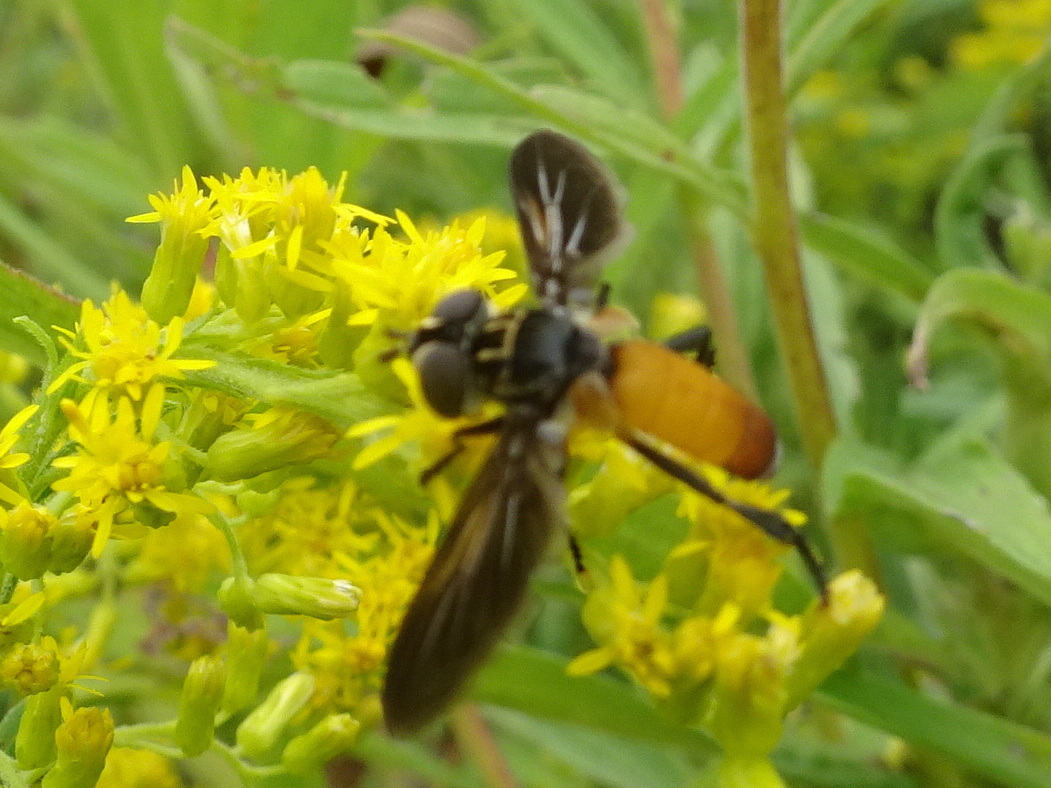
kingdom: Animalia
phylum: Arthropoda
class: Insecta
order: Diptera
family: Tachinidae
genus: Trichopoda
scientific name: Trichopoda pennipes
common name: Tachinid fly
